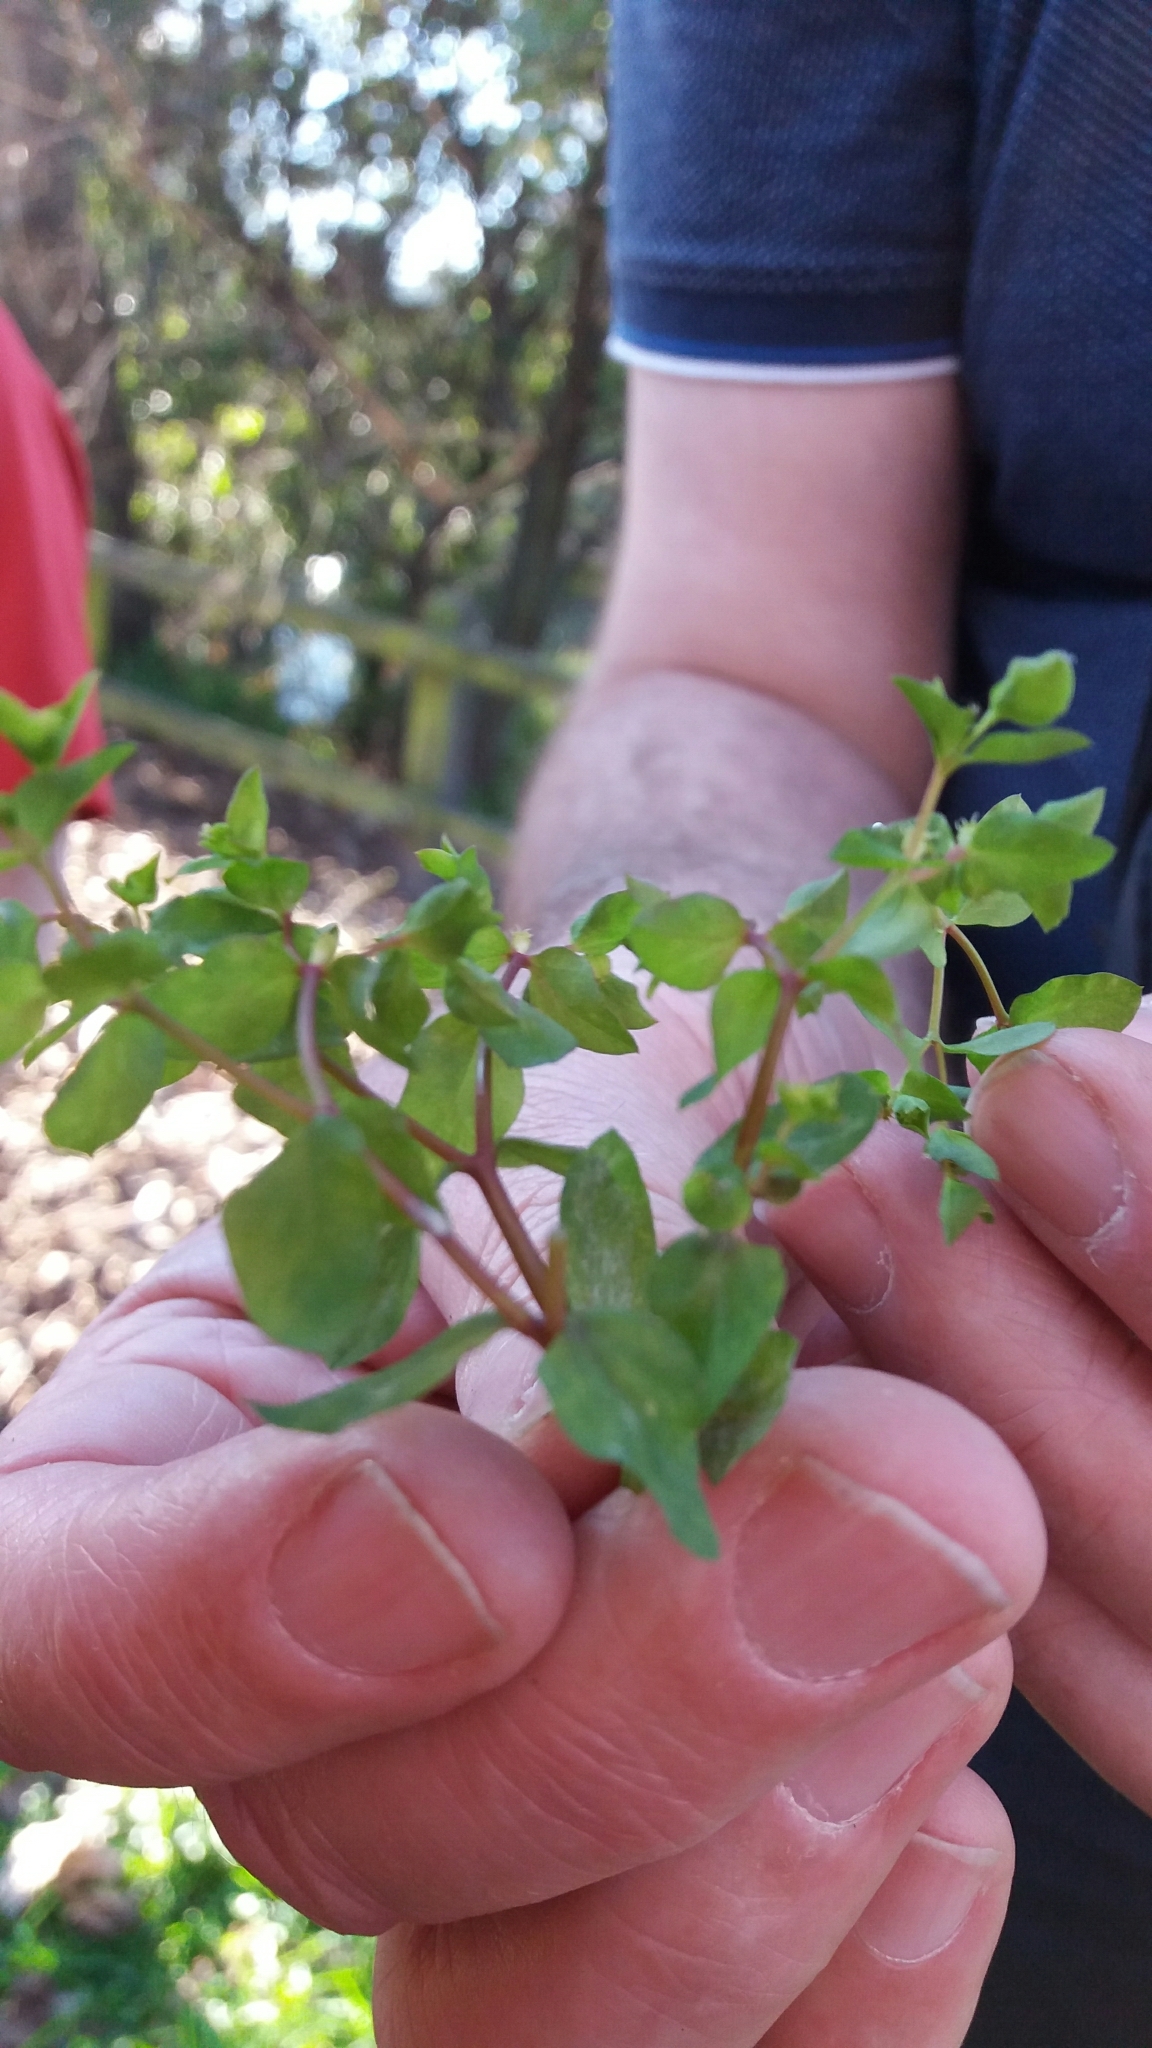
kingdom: Plantae
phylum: Tracheophyta
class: Magnoliopsida
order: Malpighiales
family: Euphorbiaceae
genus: Euphorbia
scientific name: Euphorbia peplus
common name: Petty spurge
